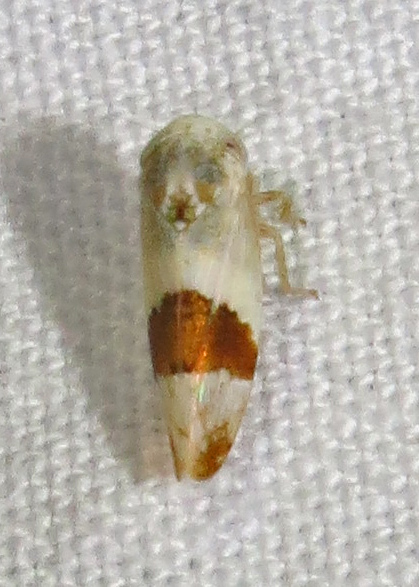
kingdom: Animalia
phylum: Arthropoda
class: Insecta
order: Hemiptera
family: Cicadellidae
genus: Norvellina
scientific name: Norvellina seminuda
